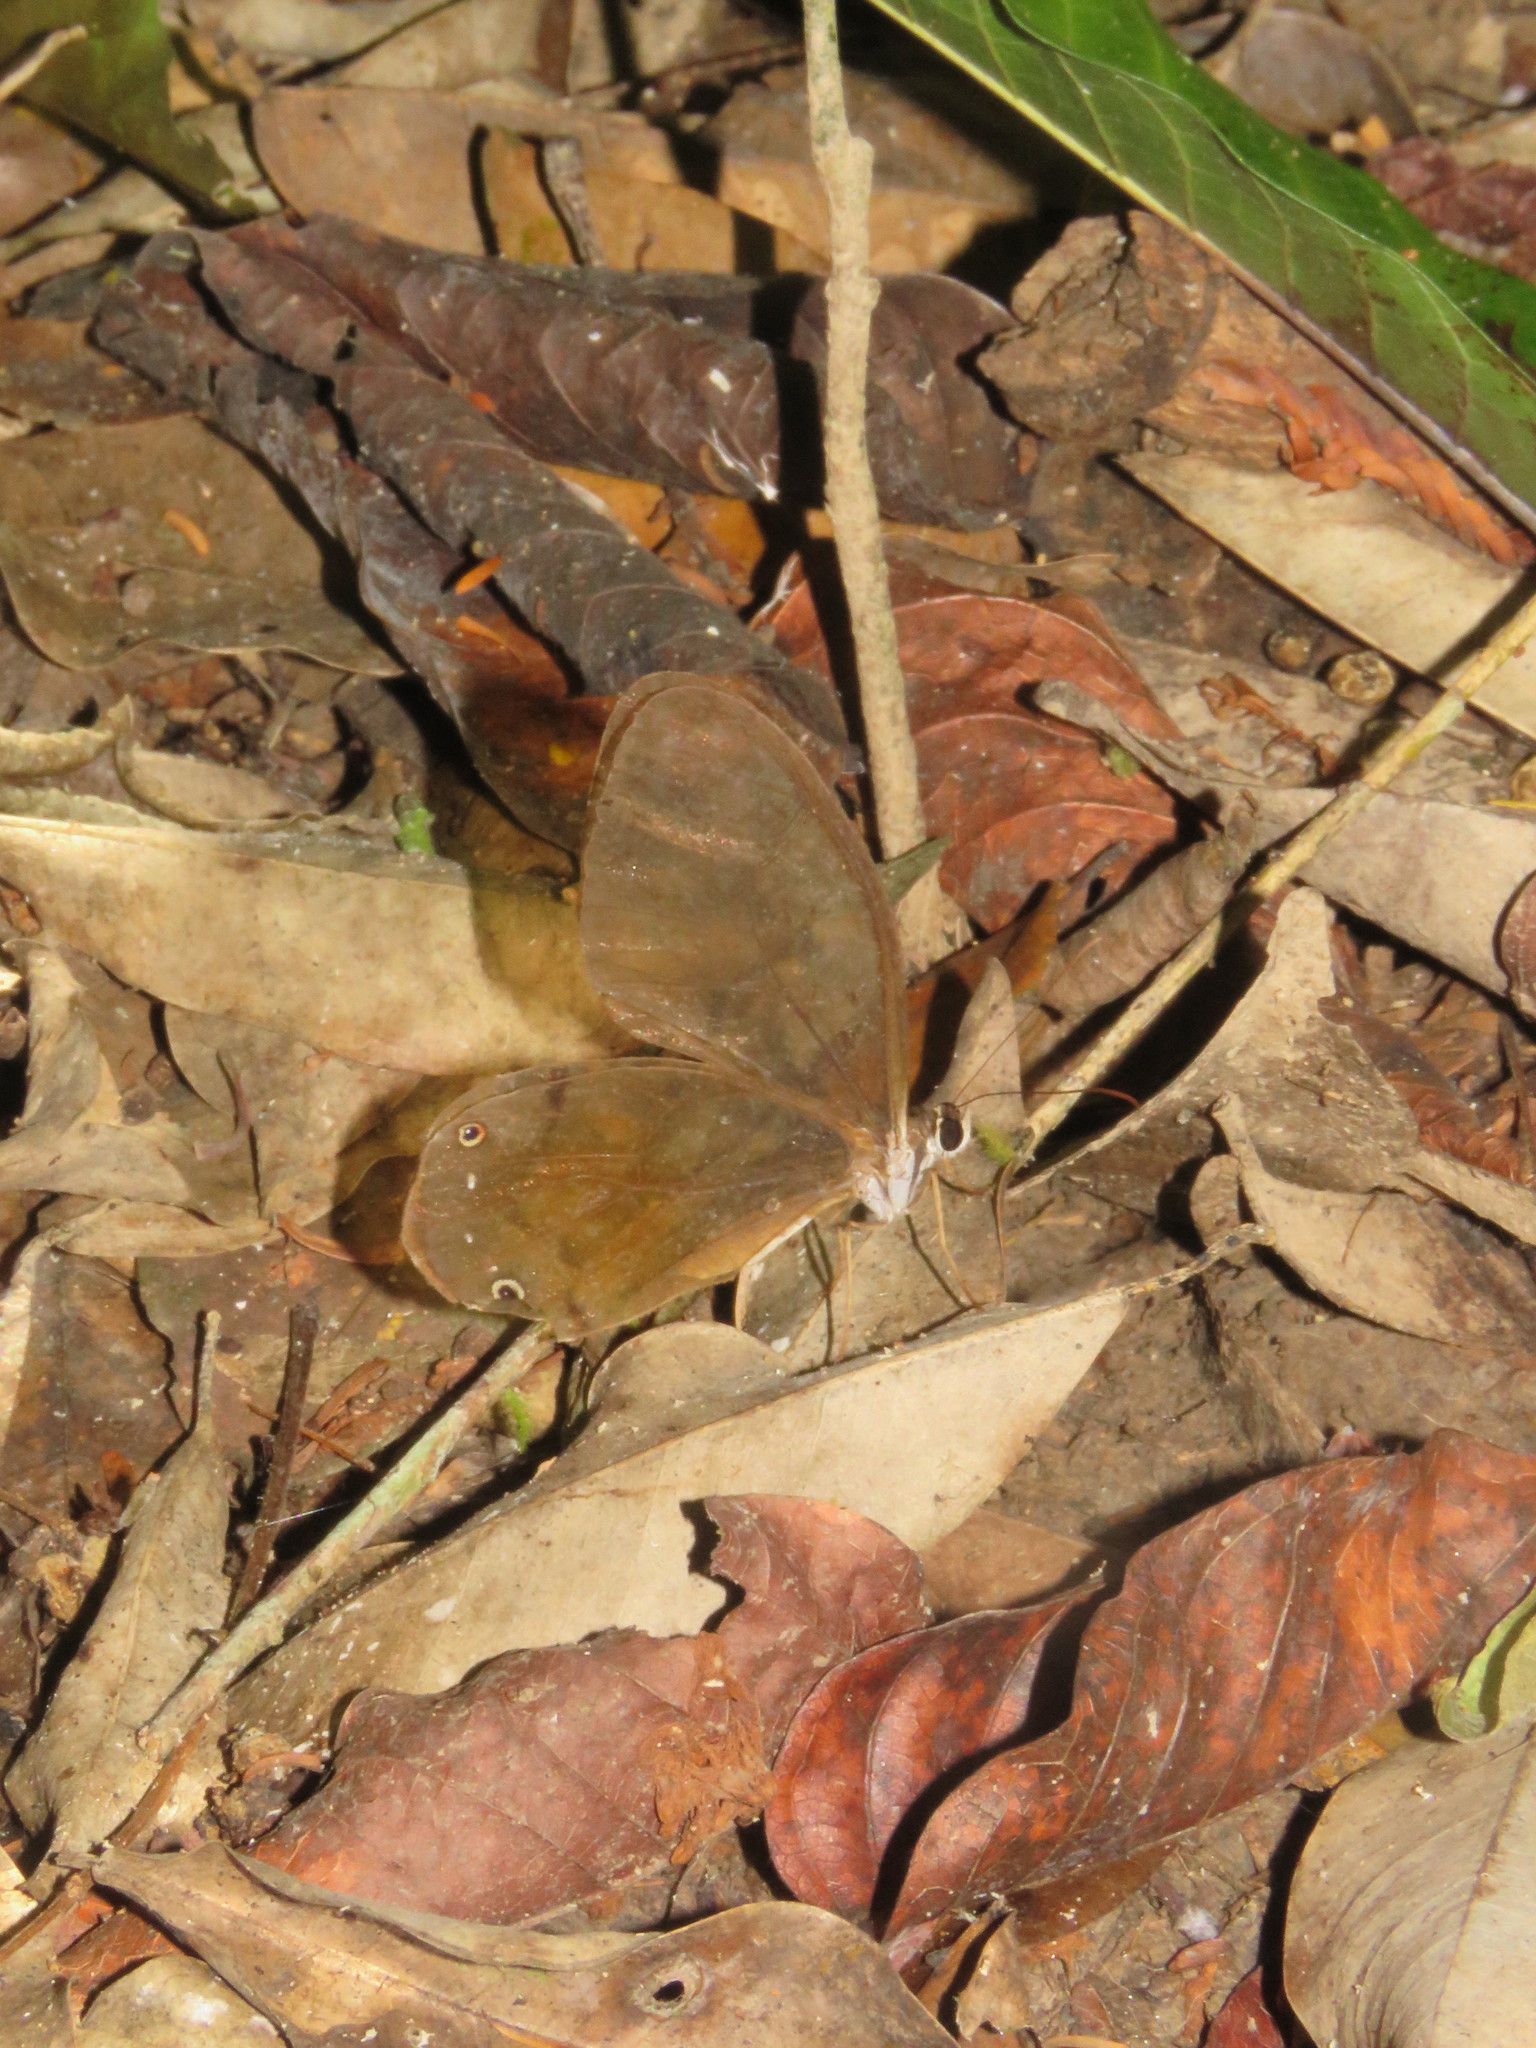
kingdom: Animalia
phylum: Arthropoda
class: Insecta
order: Lepidoptera
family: Nymphalidae
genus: Haetera
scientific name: Haetera piera
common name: Amber phantom
